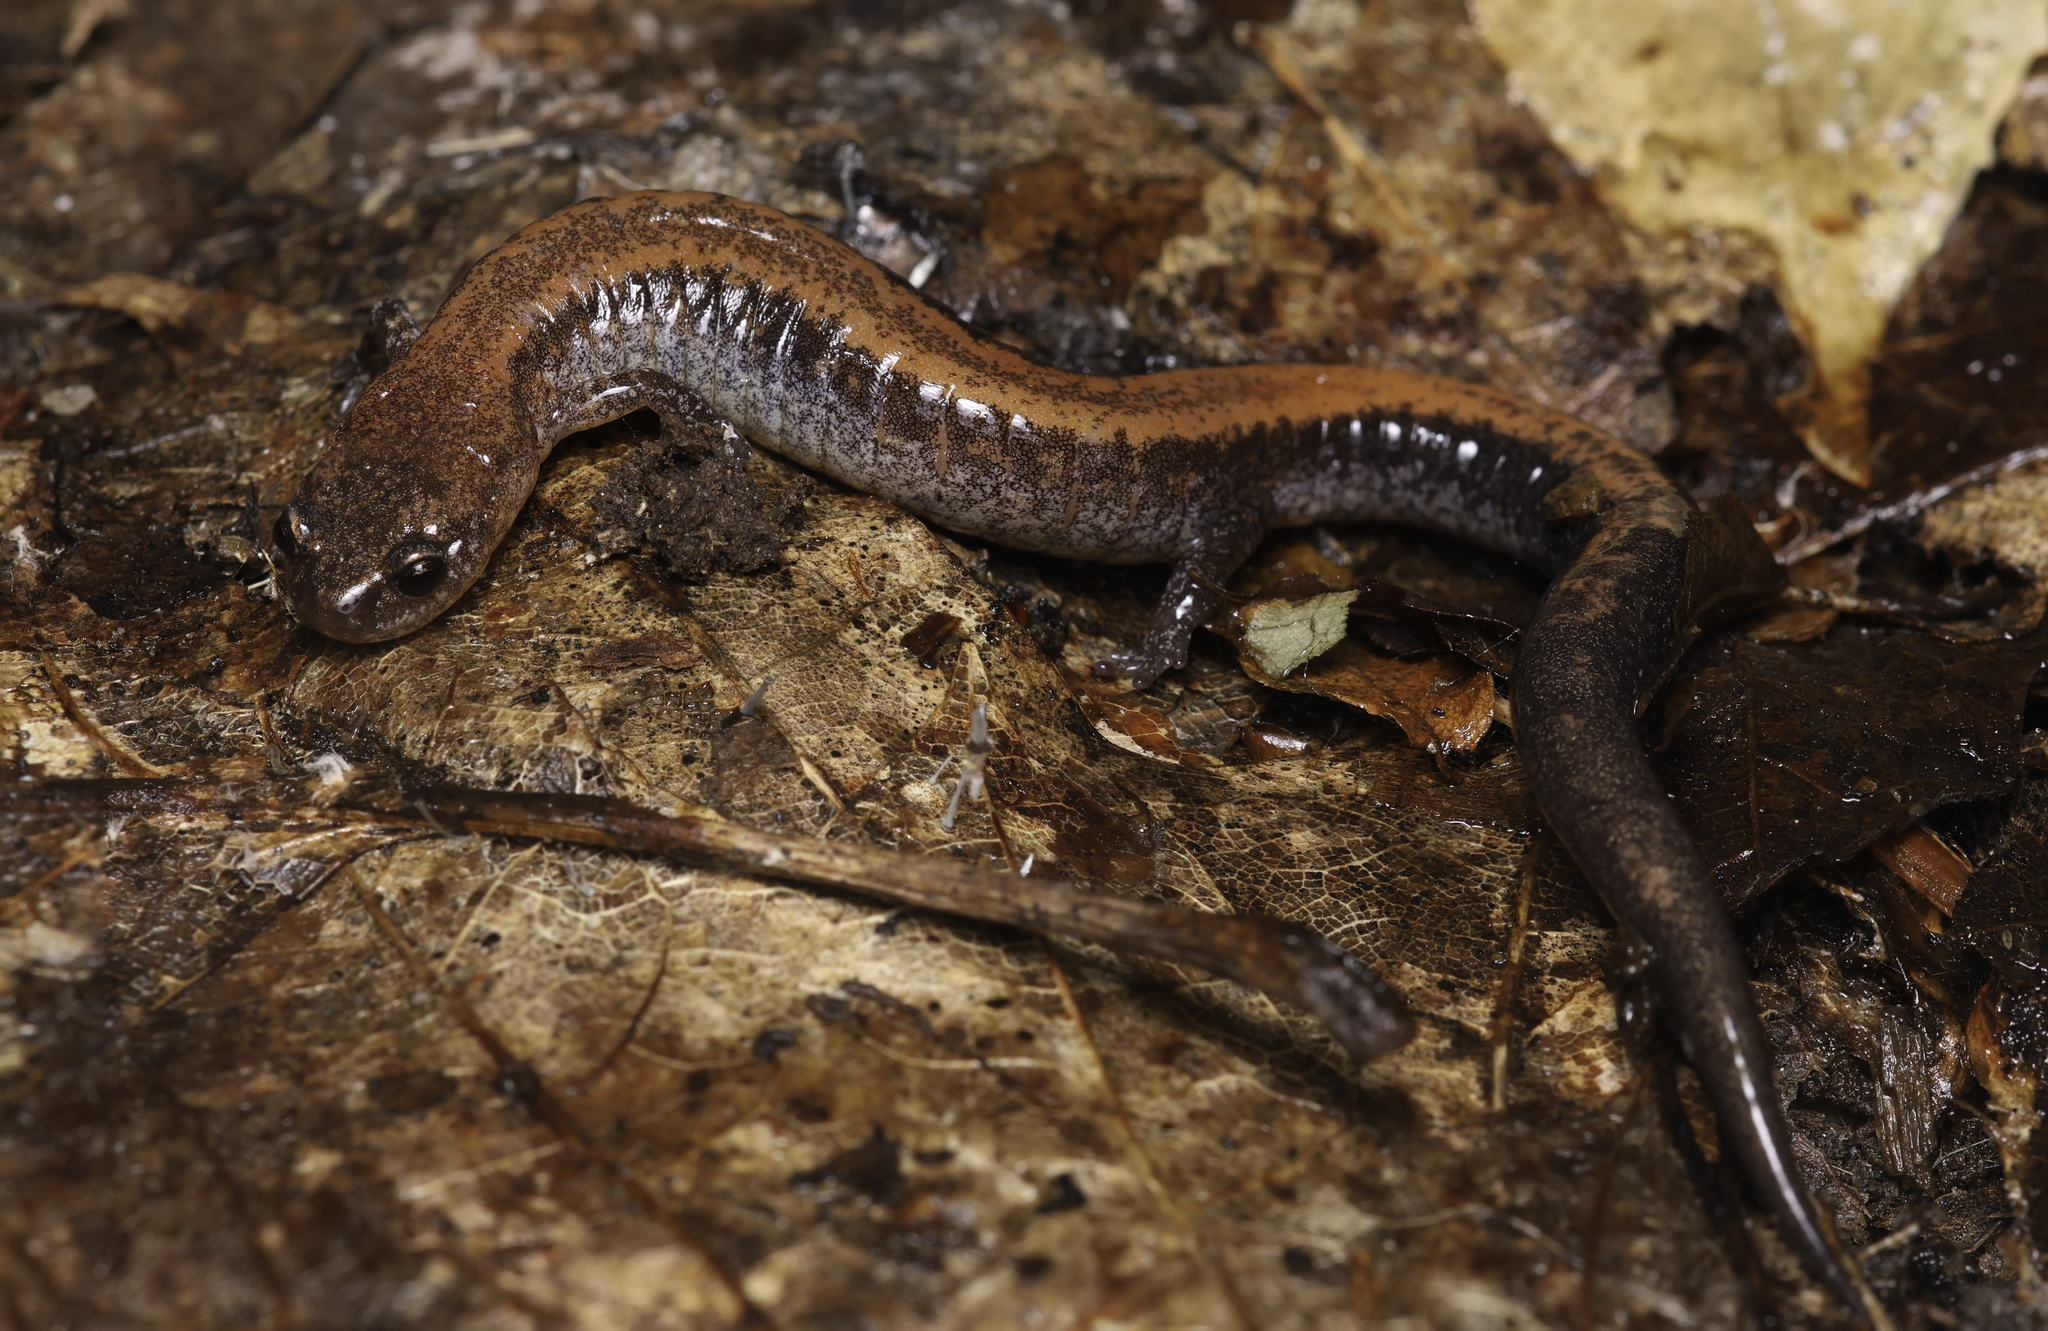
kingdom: Animalia
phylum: Chordata
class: Amphibia
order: Caudata
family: Plethodontidae
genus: Plethodon
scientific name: Plethodon cinereus
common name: Redback salamander
